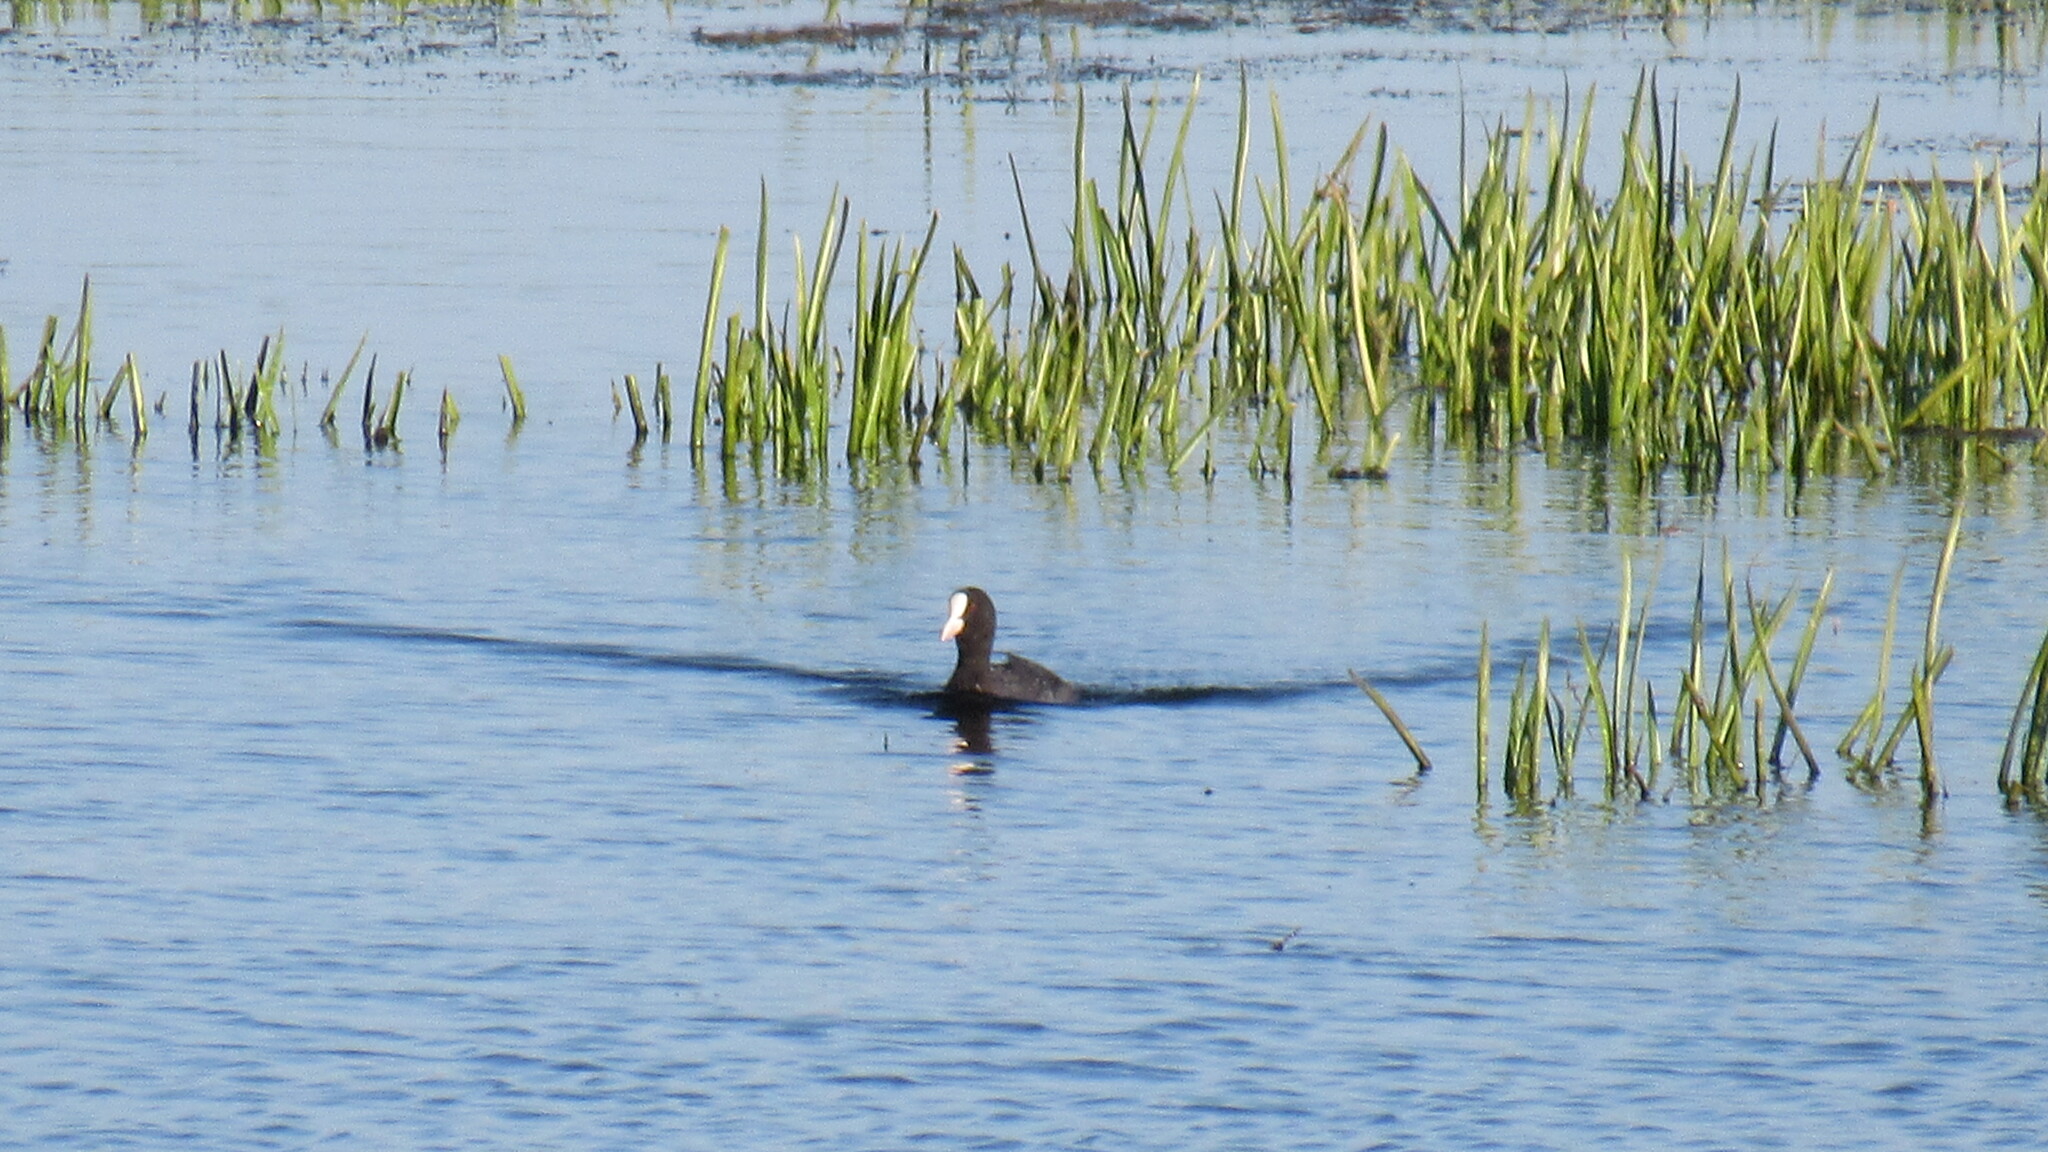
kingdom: Animalia
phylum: Chordata
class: Aves
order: Gruiformes
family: Rallidae
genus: Fulica
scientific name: Fulica atra
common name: Eurasian coot
